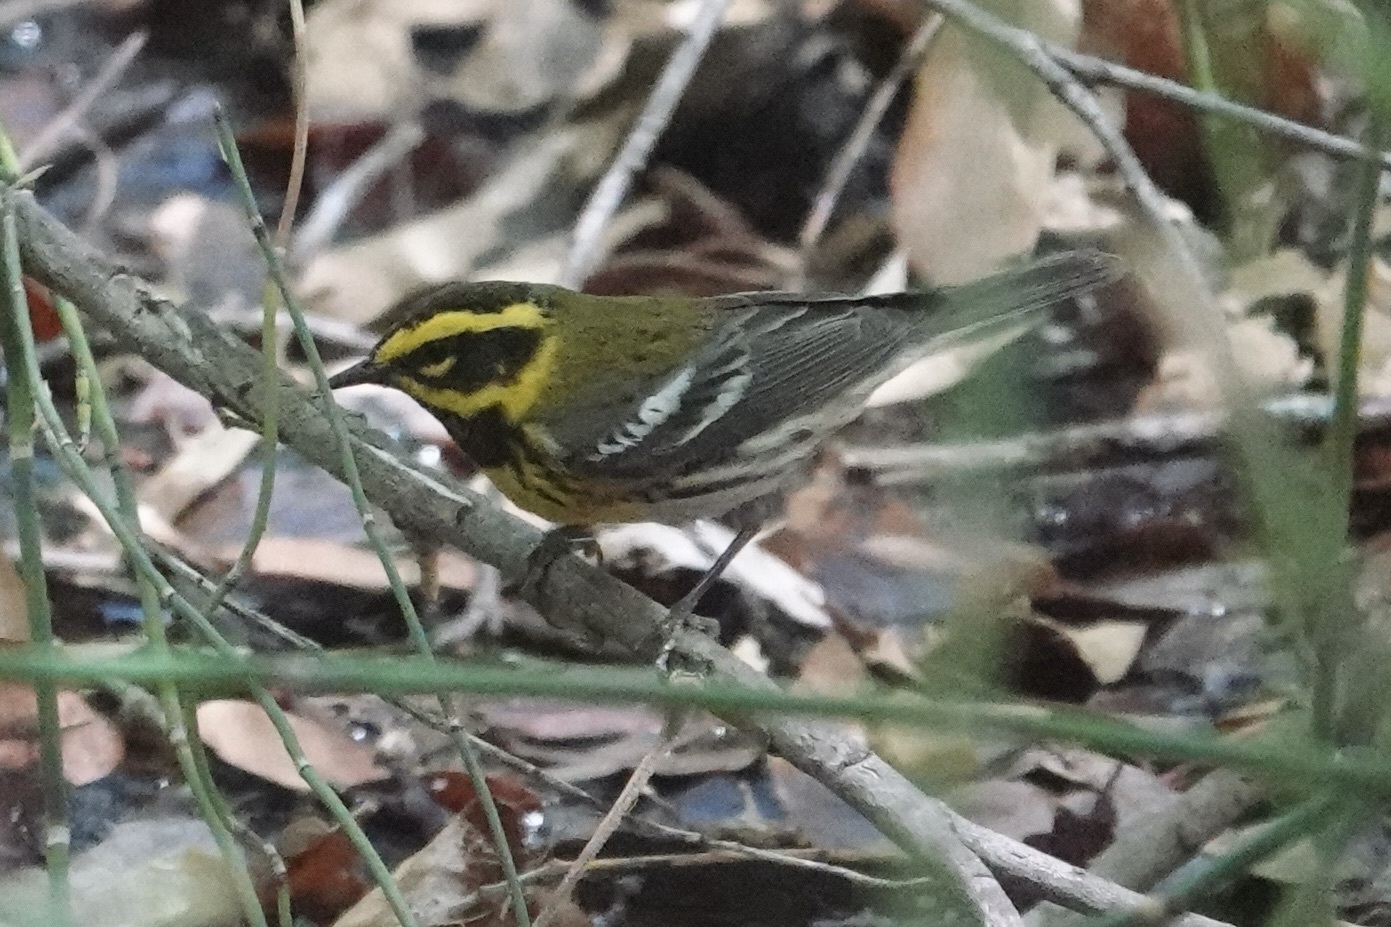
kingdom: Animalia
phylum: Chordata
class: Aves
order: Passeriformes
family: Parulidae
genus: Setophaga
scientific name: Setophaga townsendi
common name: Townsend's warbler
